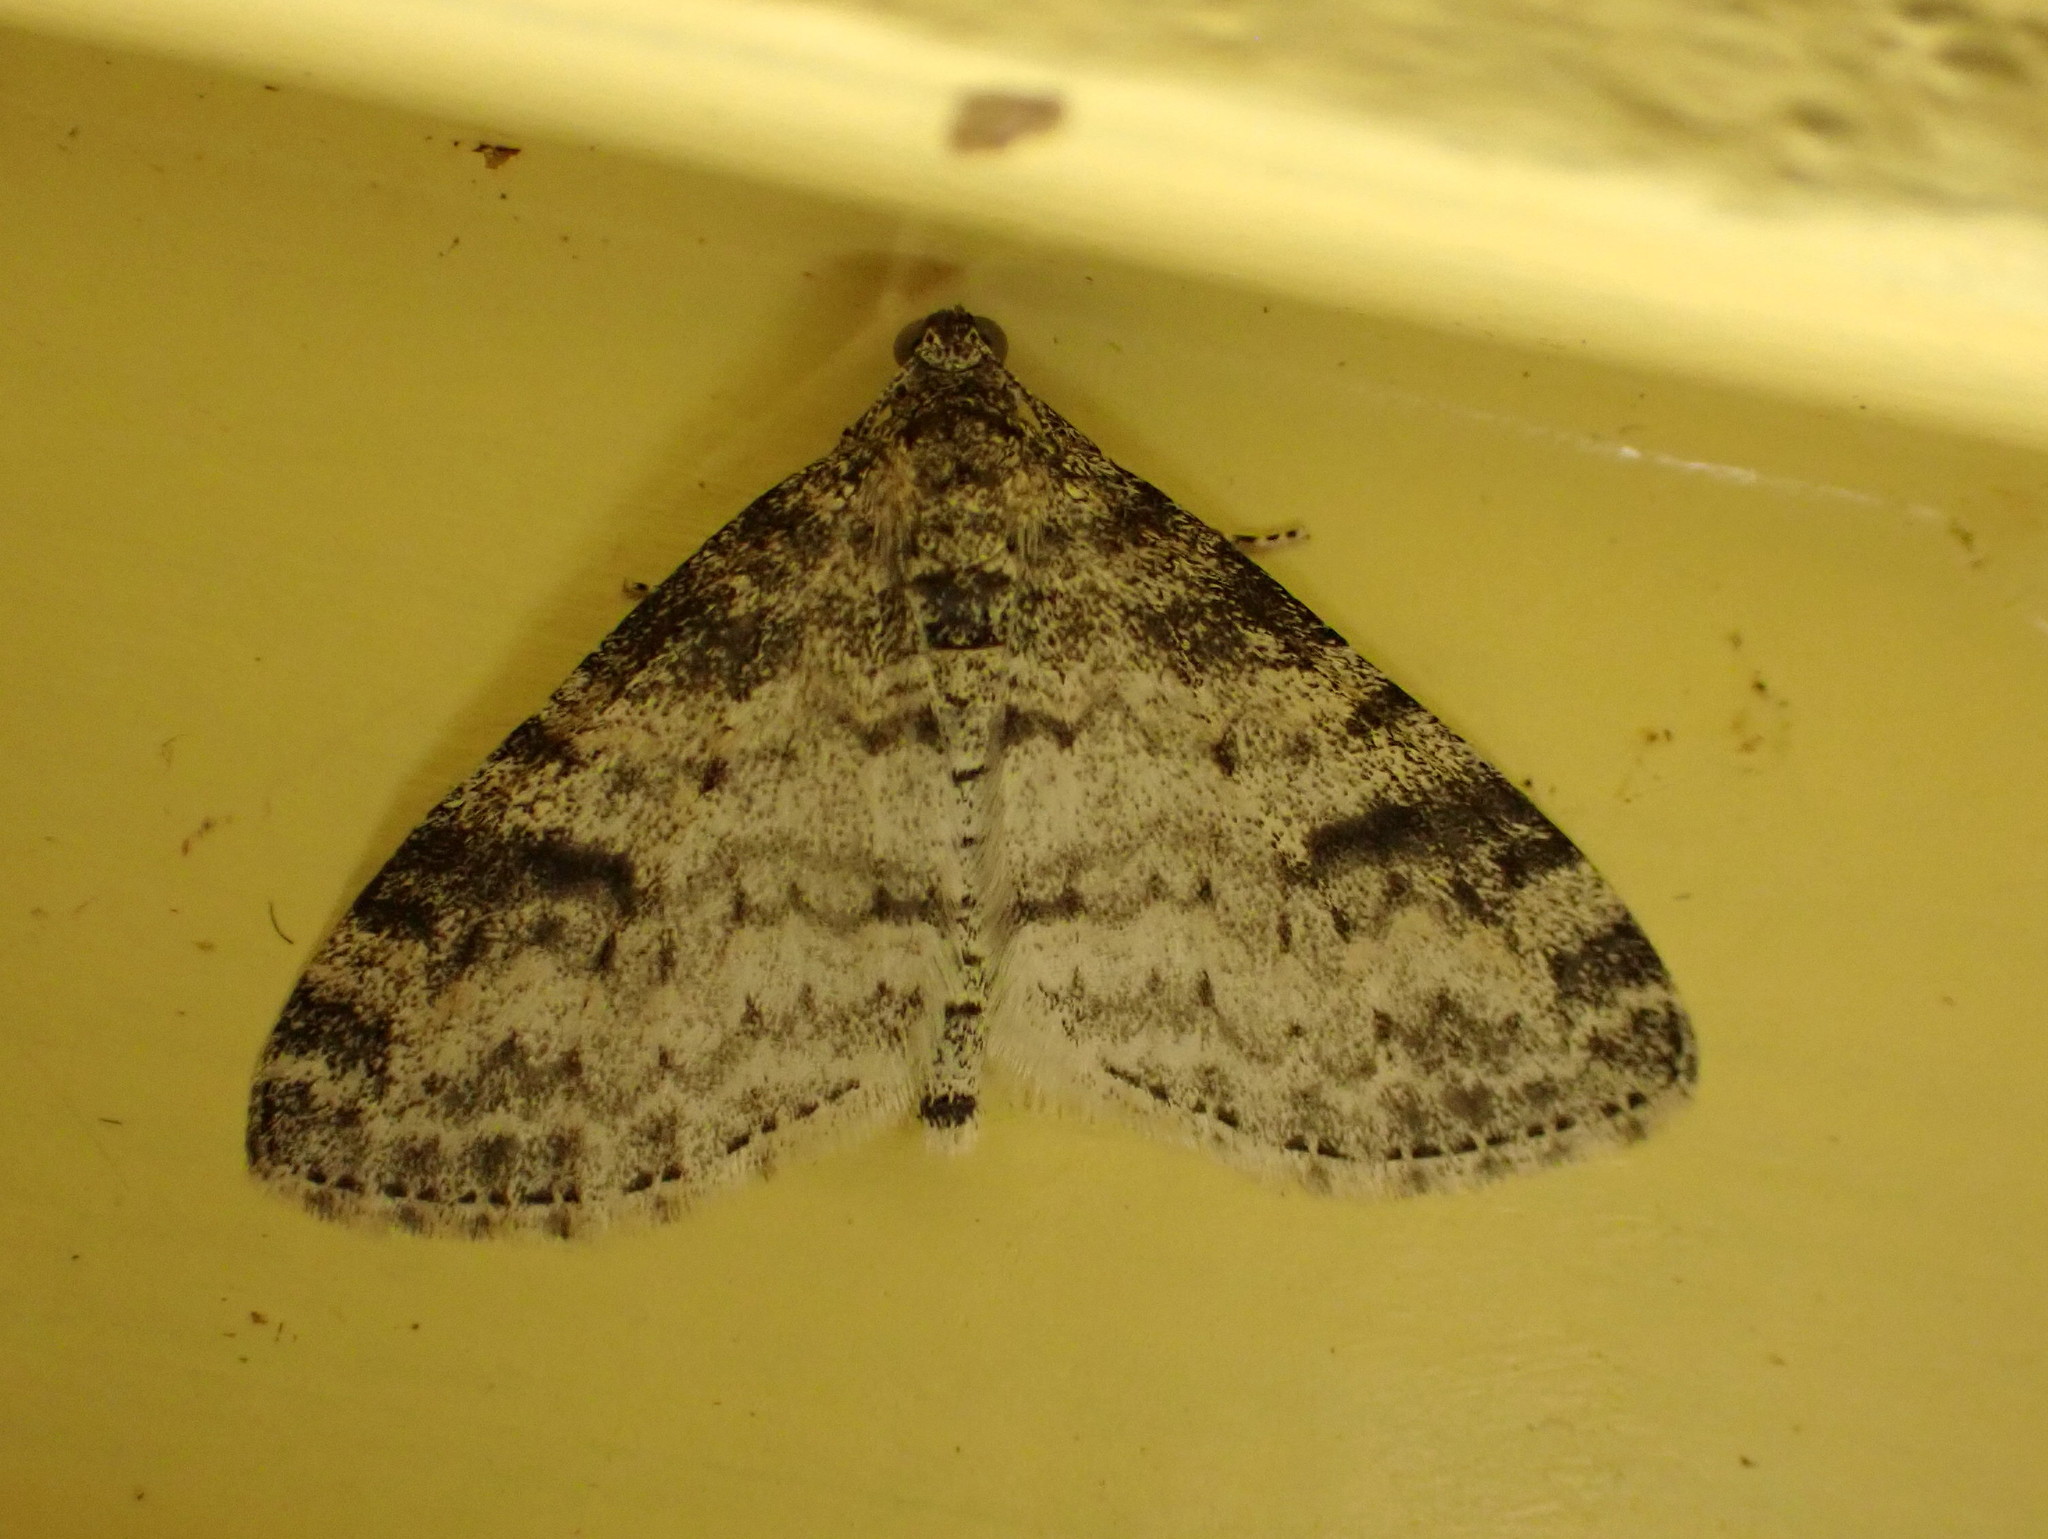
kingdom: Animalia
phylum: Arthropoda
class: Insecta
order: Lepidoptera
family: Geometridae
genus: Lobophora
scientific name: Lobophora nivigerata
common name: Powdered bigwing
